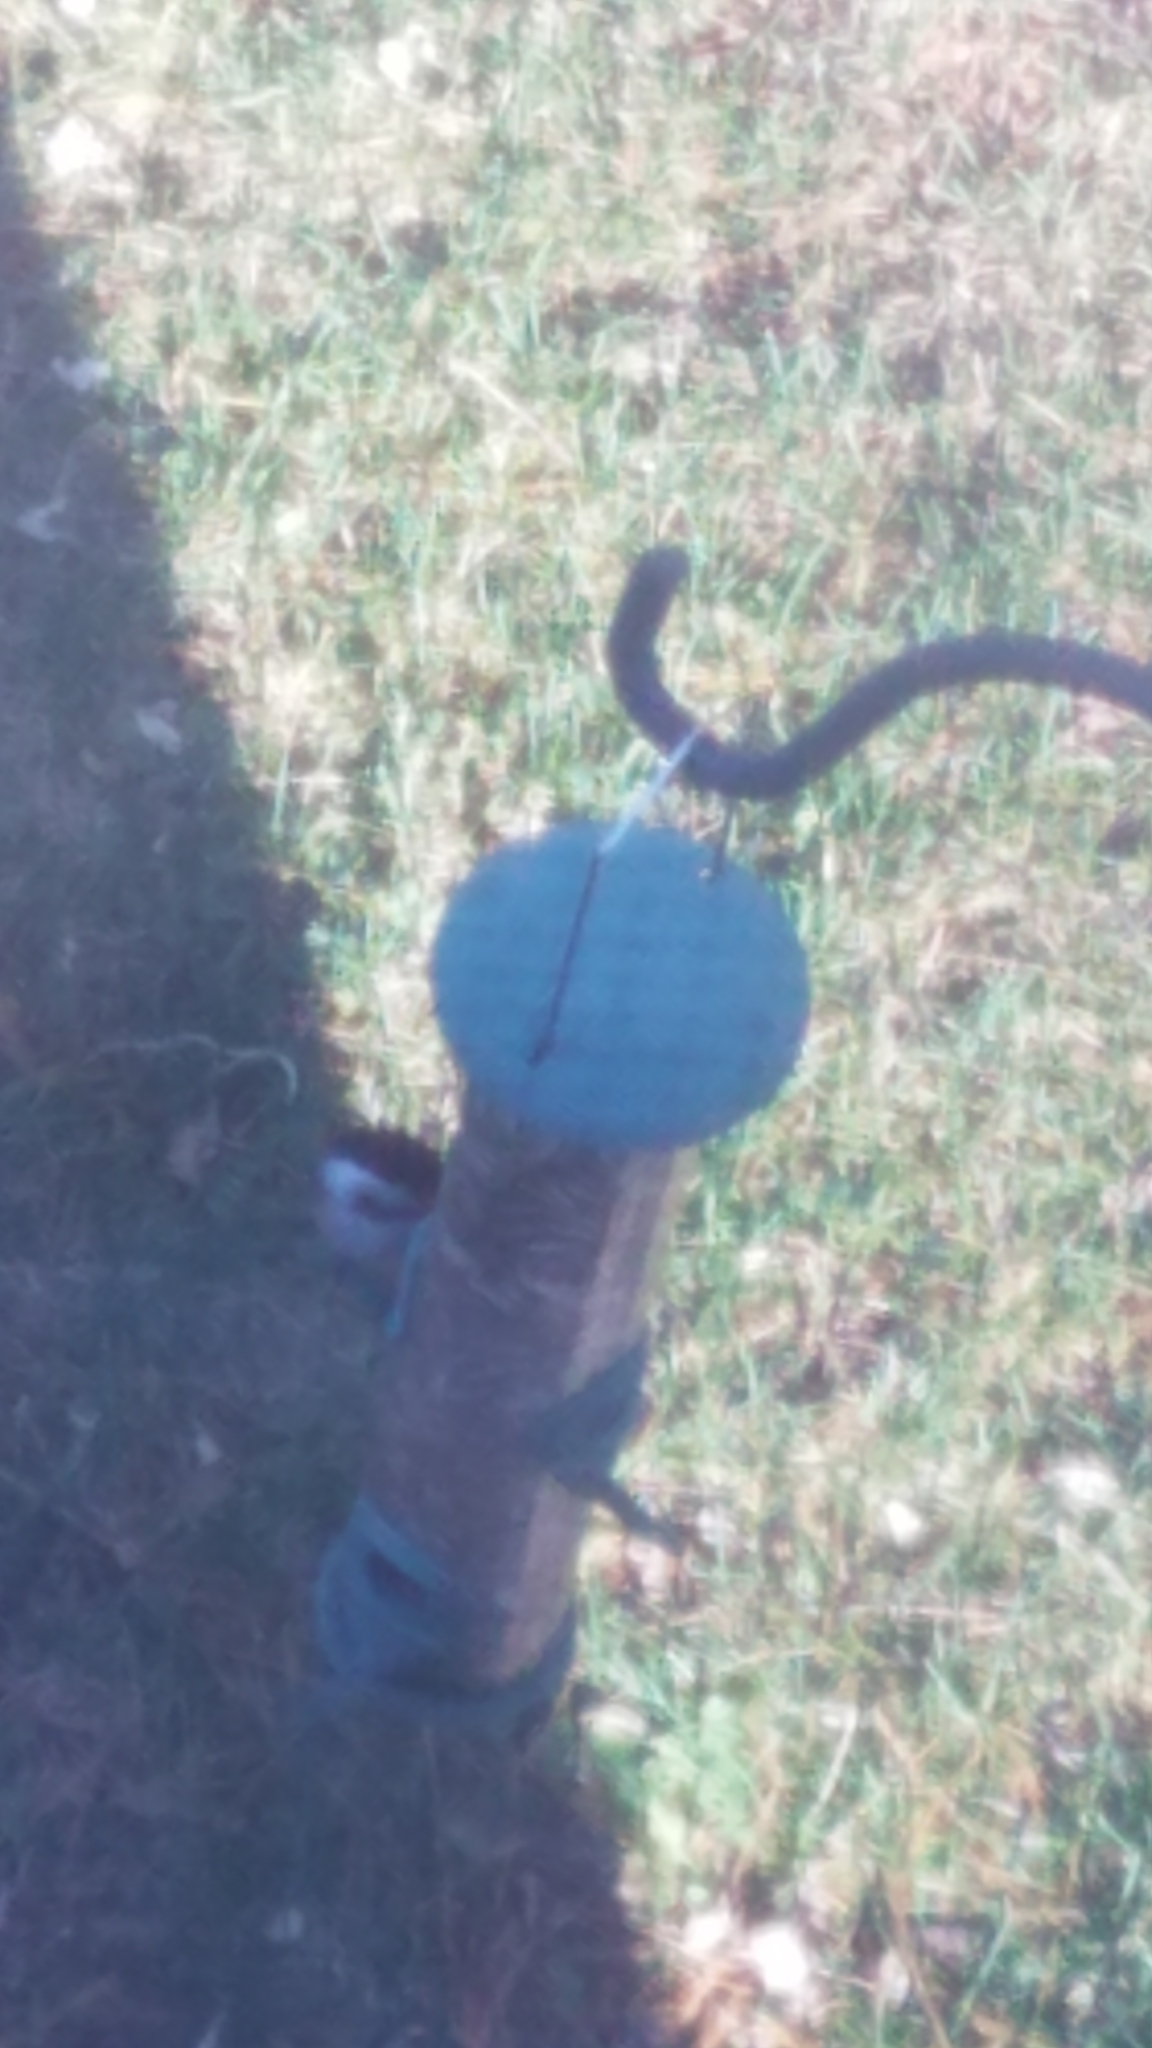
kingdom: Animalia
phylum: Chordata
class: Aves
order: Passeriformes
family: Paridae
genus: Poecile
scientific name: Poecile atricapillus
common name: Black-capped chickadee
